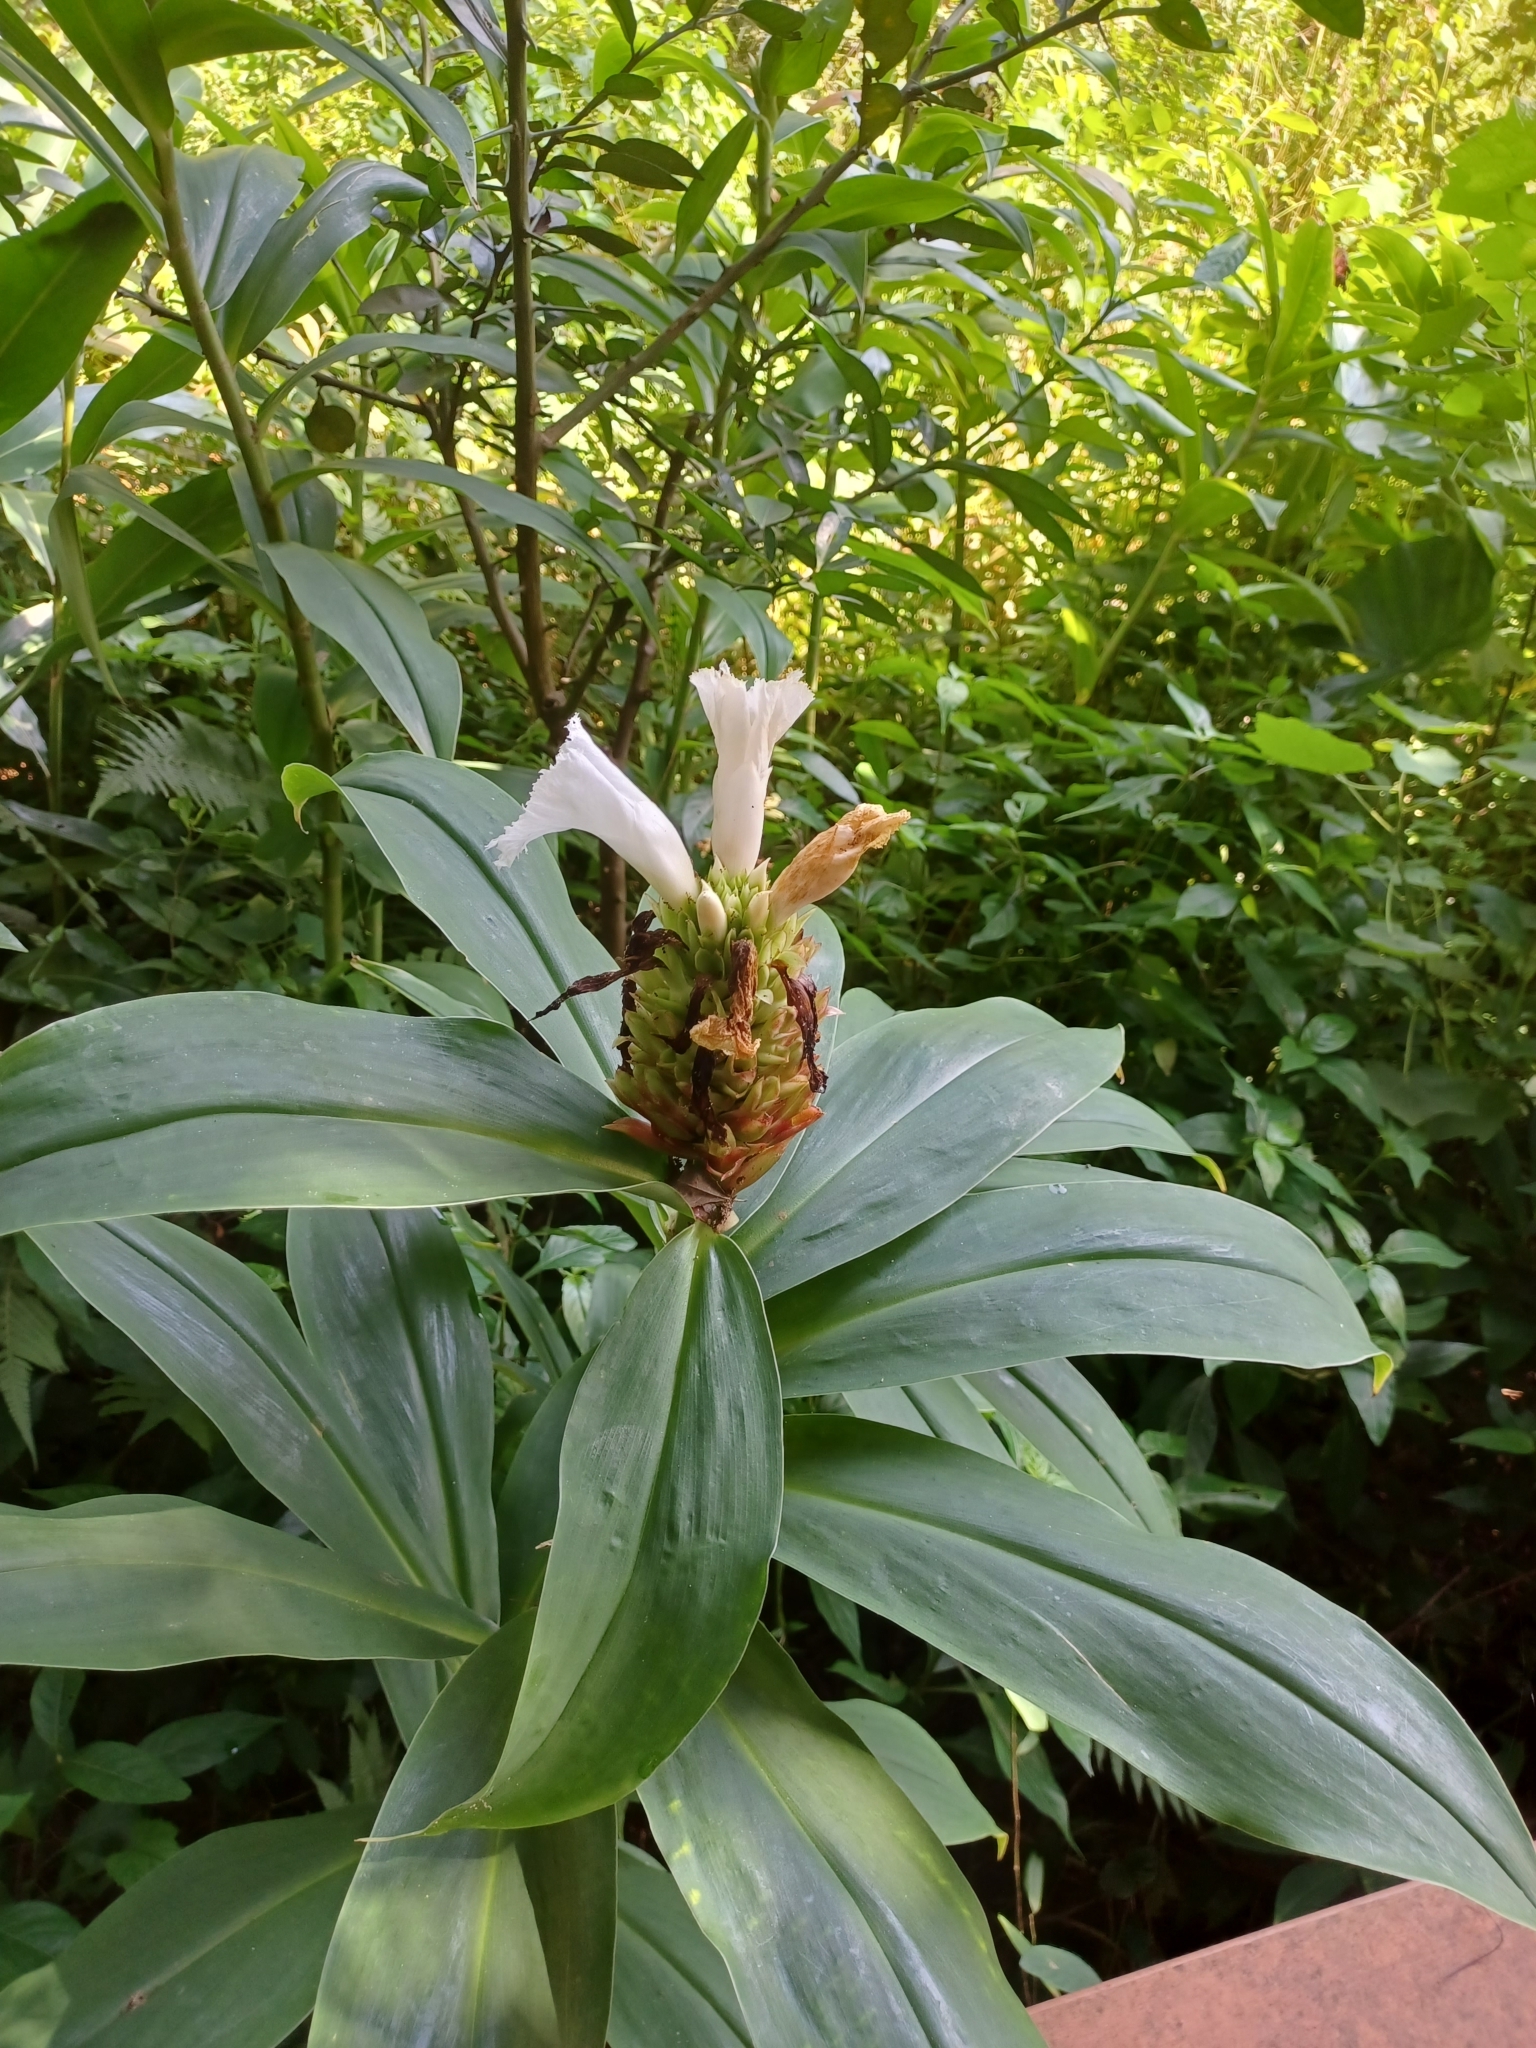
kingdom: Plantae
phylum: Tracheophyta
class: Liliopsida
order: Zingiberales
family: Costaceae
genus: Hellenia
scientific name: Hellenia speciosa
